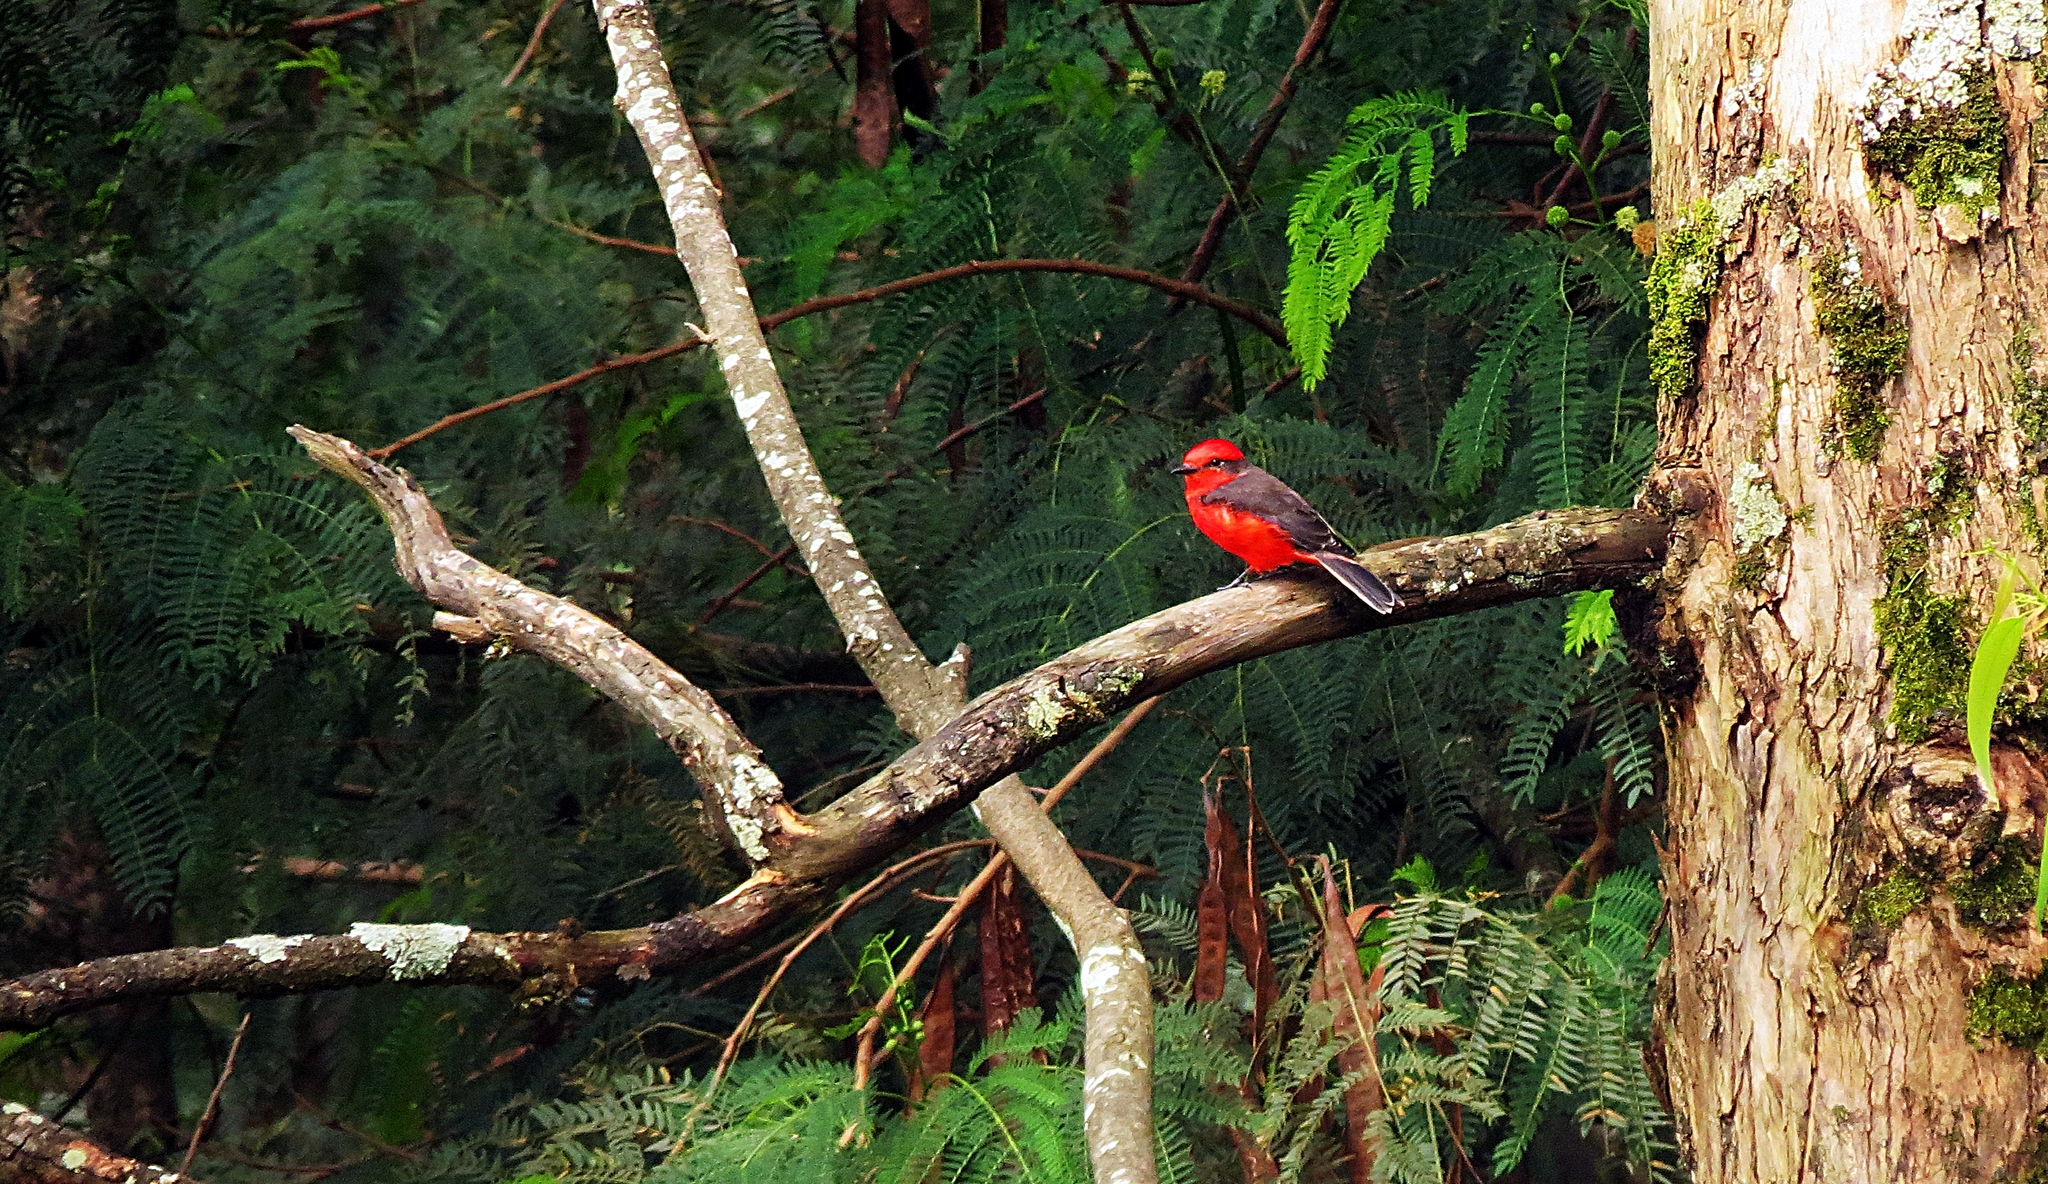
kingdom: Animalia
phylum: Chordata
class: Aves
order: Passeriformes
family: Tyrannidae
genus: Pyrocephalus
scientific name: Pyrocephalus rubinus
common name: Vermilion flycatcher
